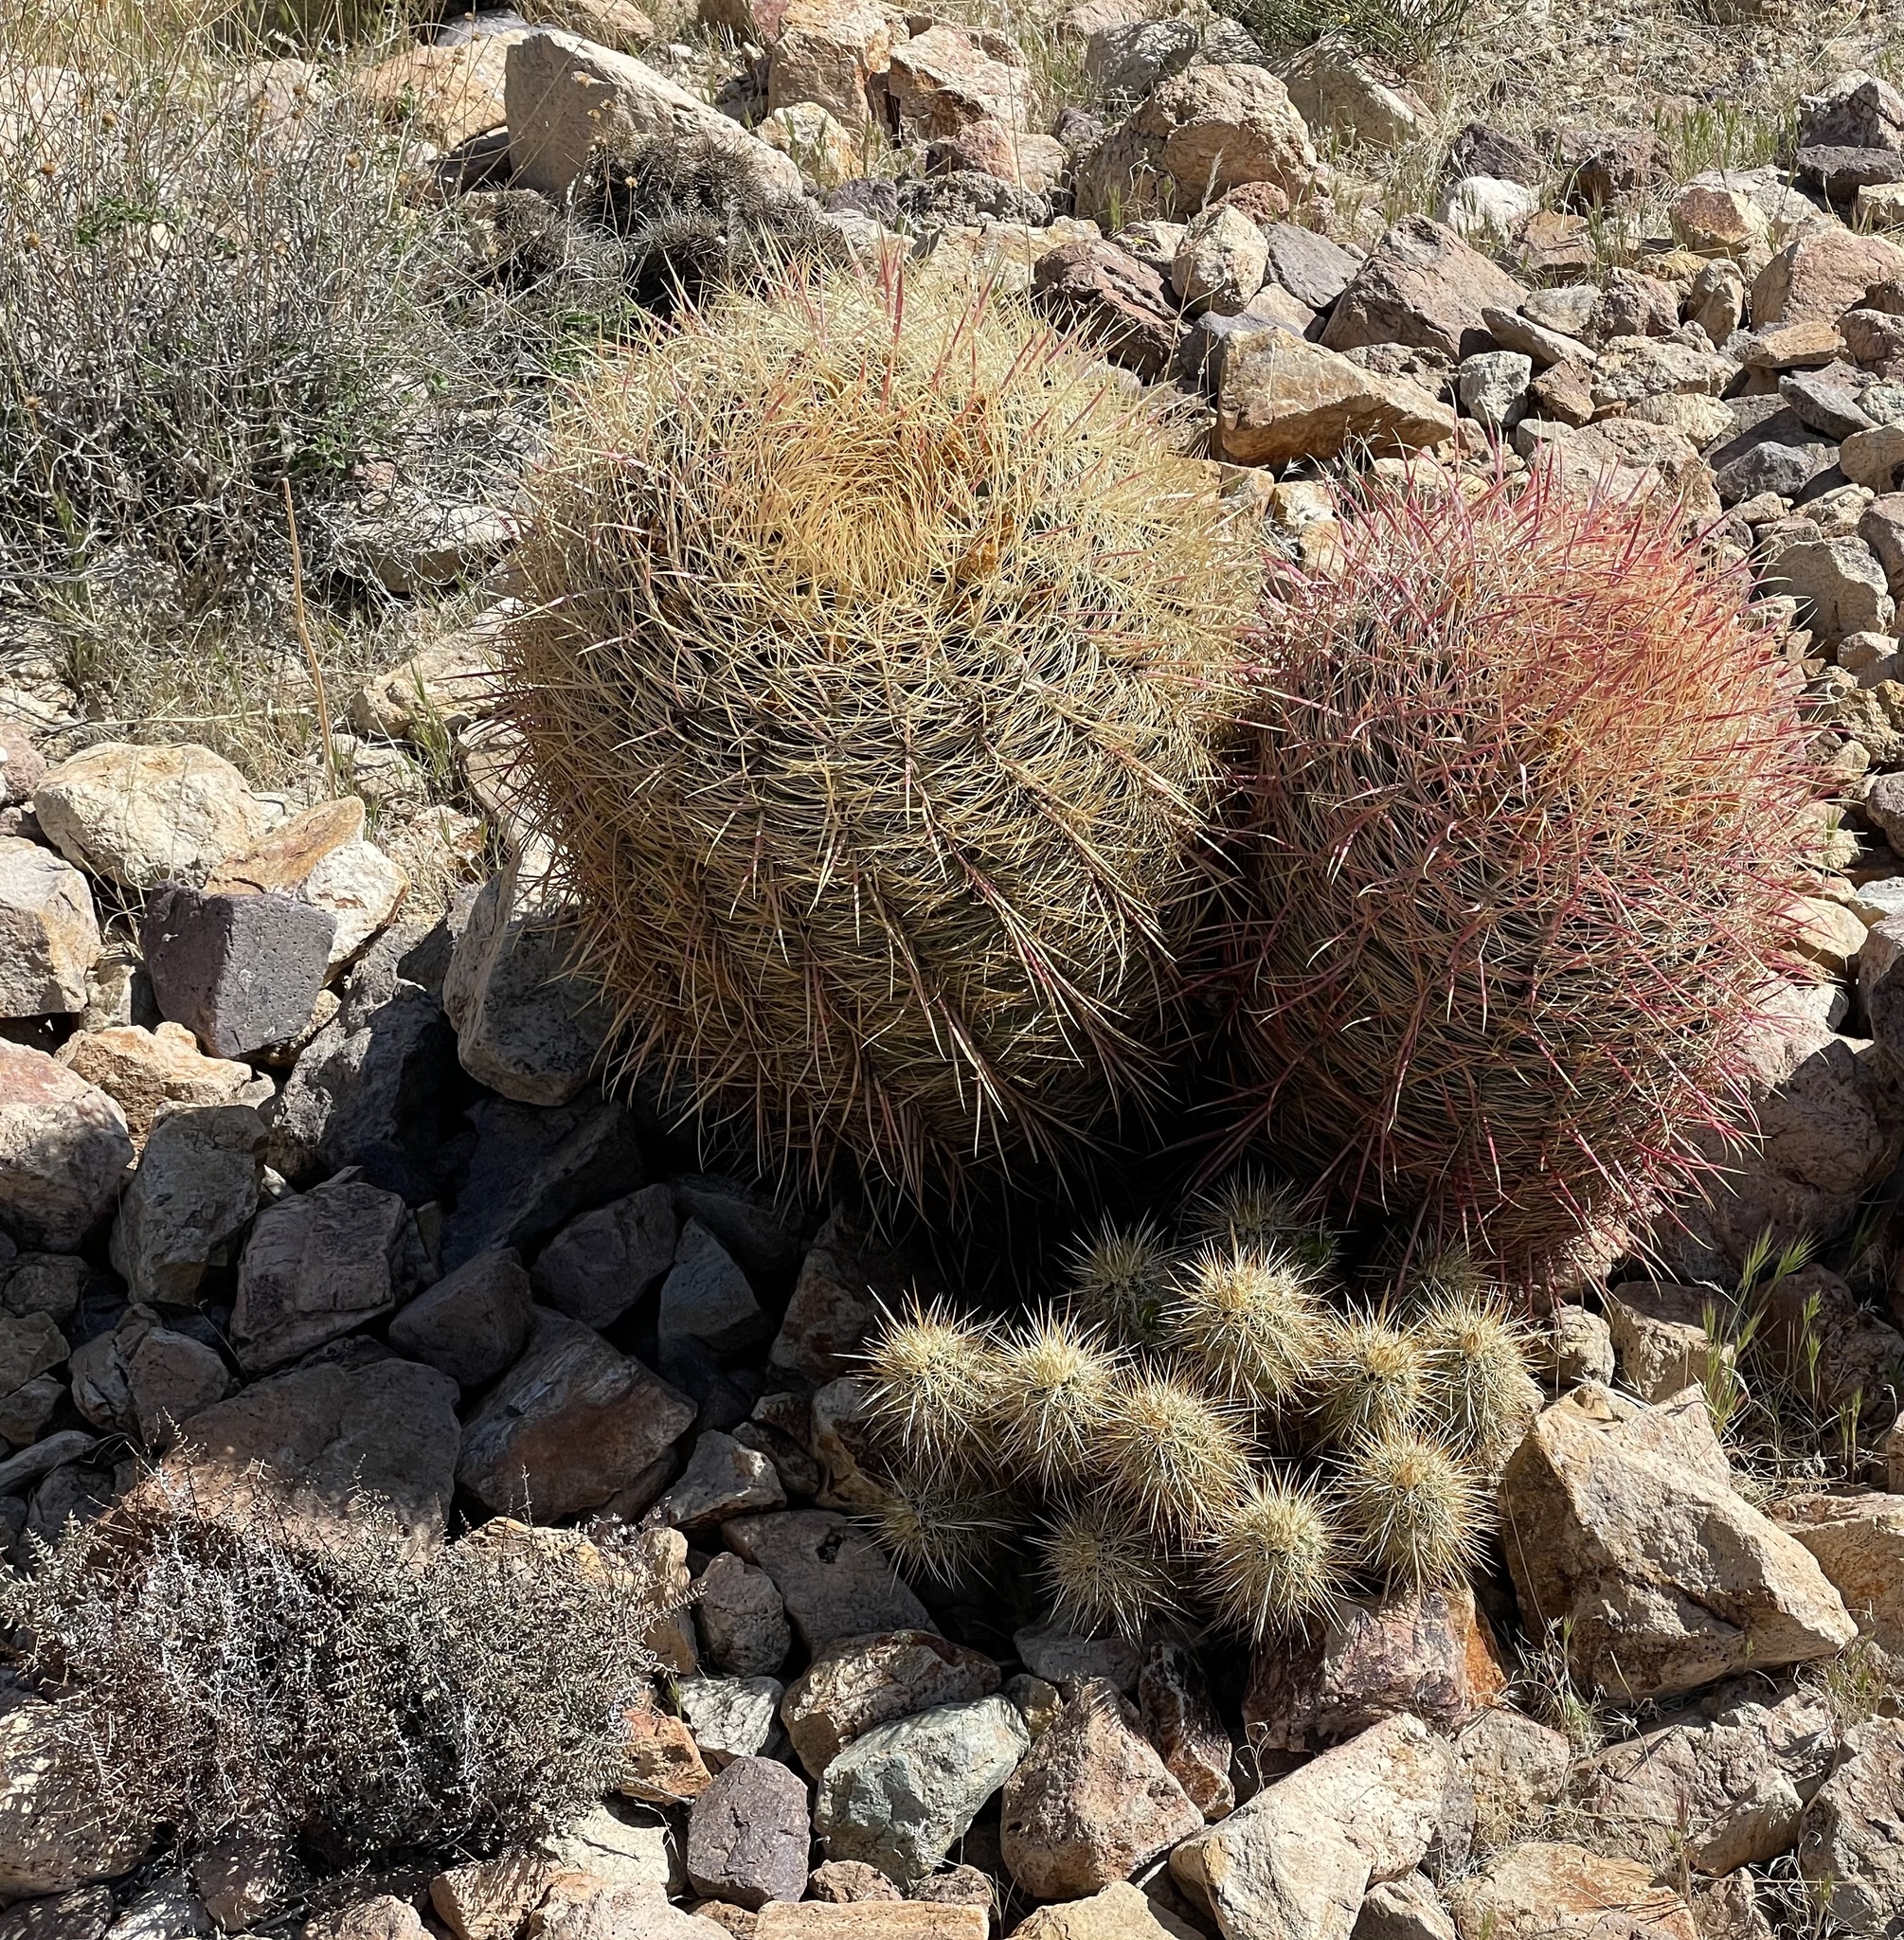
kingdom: Plantae
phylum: Tracheophyta
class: Magnoliopsida
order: Caryophyllales
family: Cactaceae
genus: Ferocactus
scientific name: Ferocactus cylindraceus
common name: California barrel cactus
